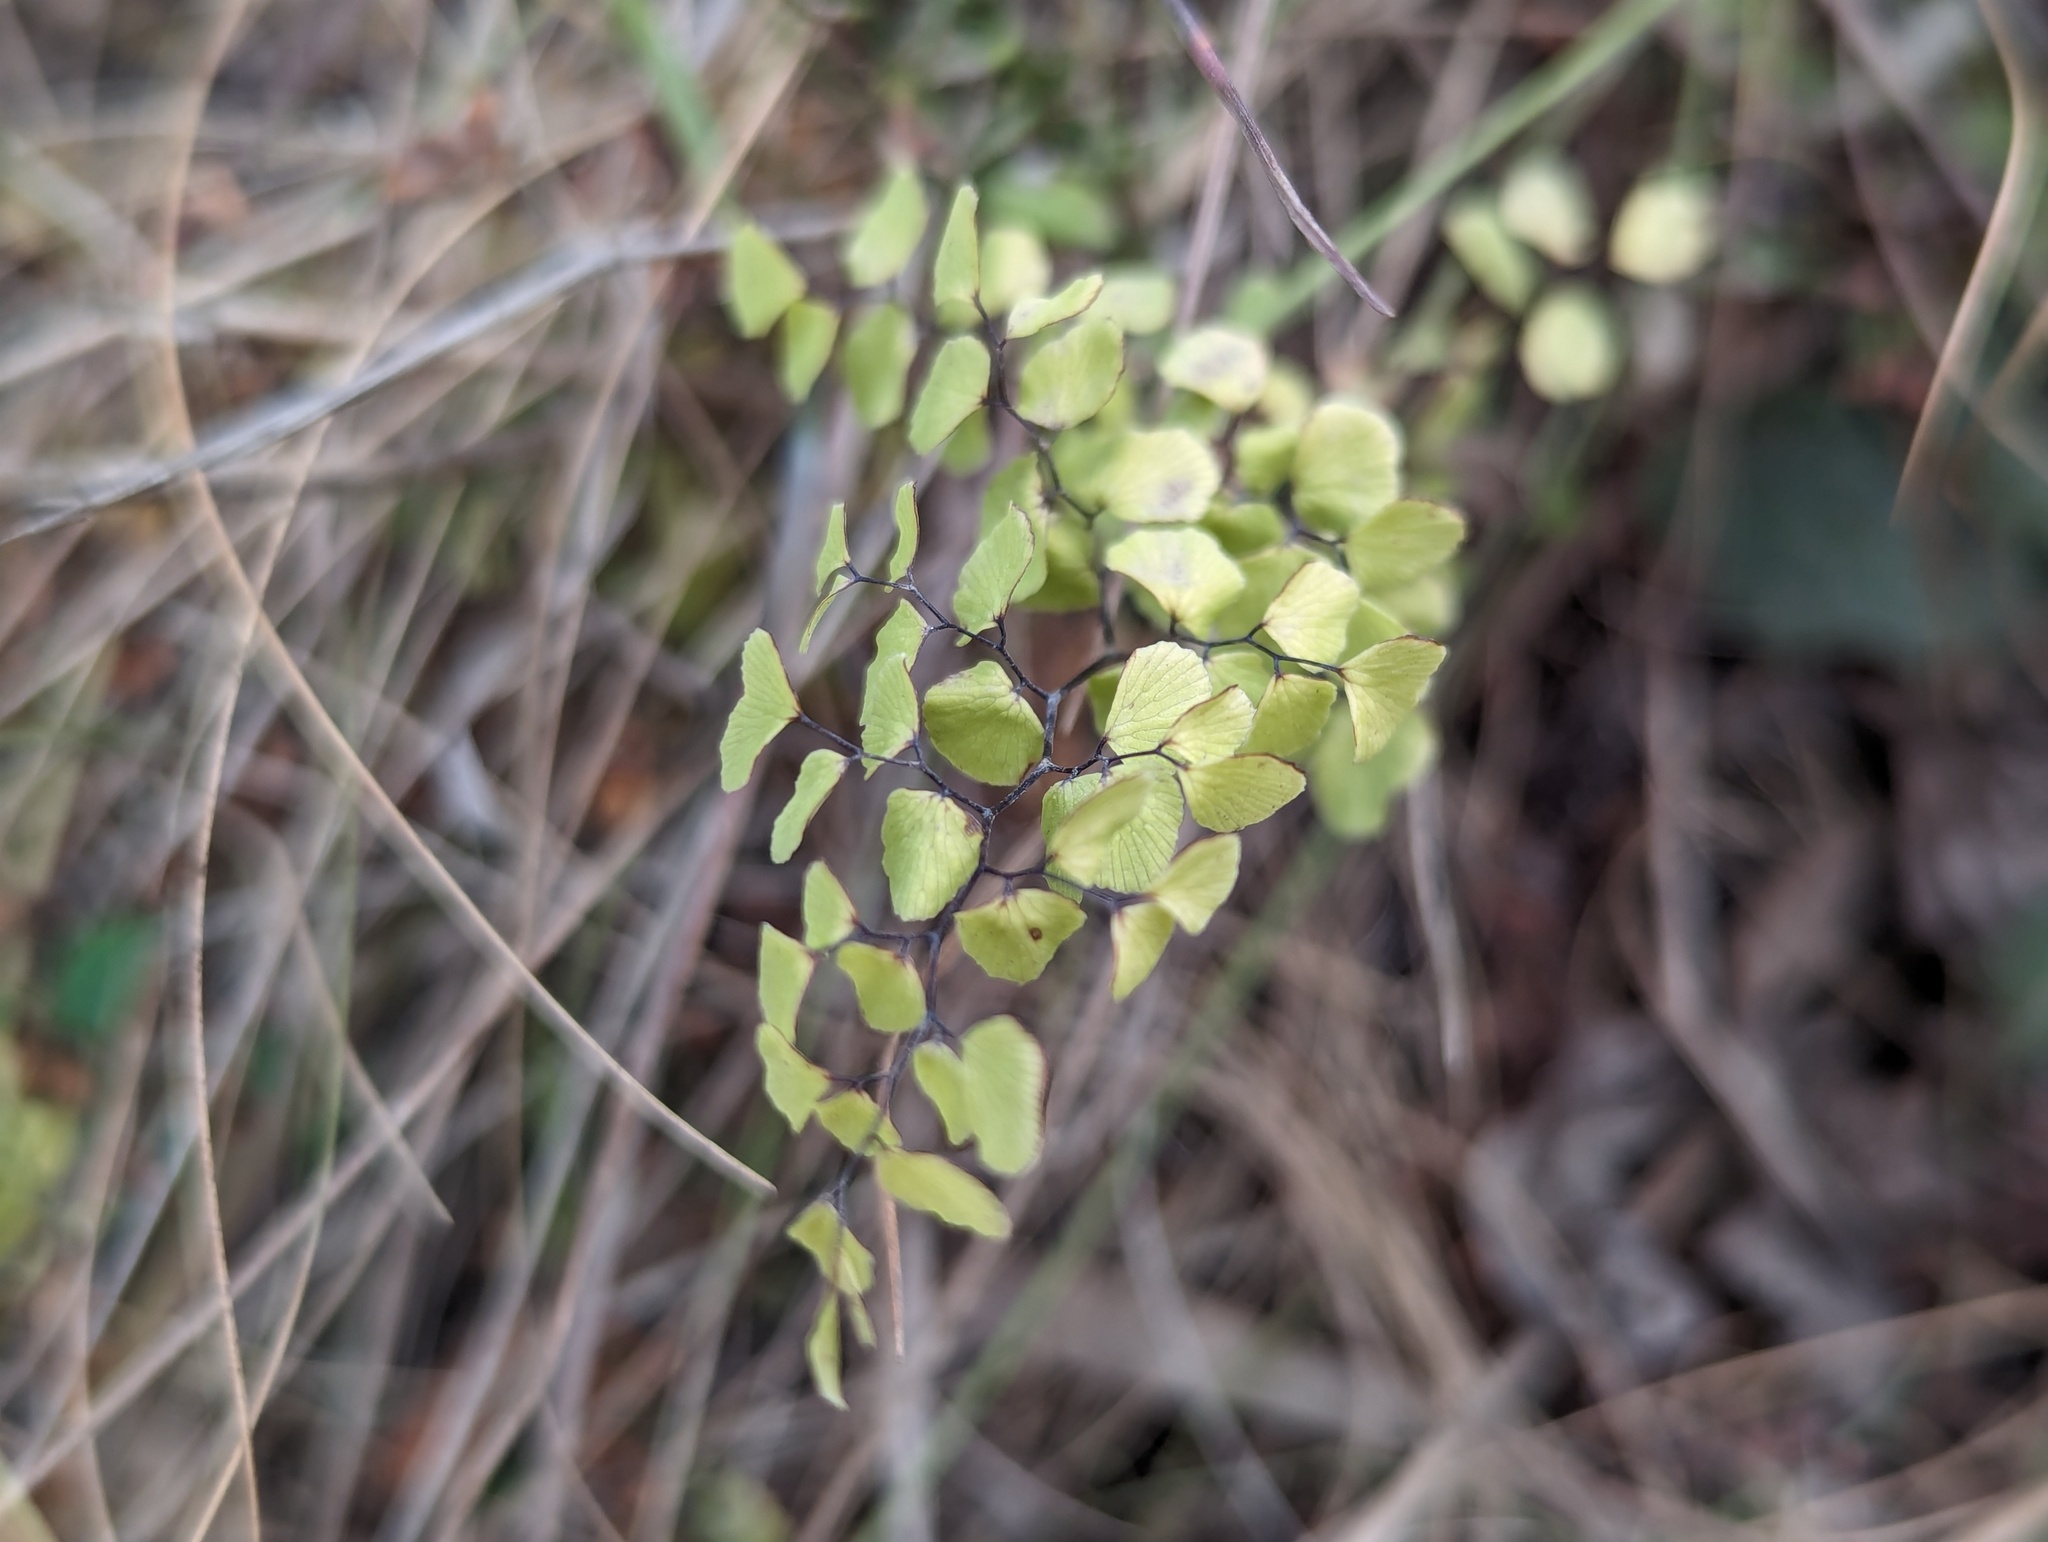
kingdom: Plantae
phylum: Tracheophyta
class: Polypodiopsida
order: Polypodiales
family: Pteridaceae
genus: Adiantum
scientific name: Adiantum aethiopicum
